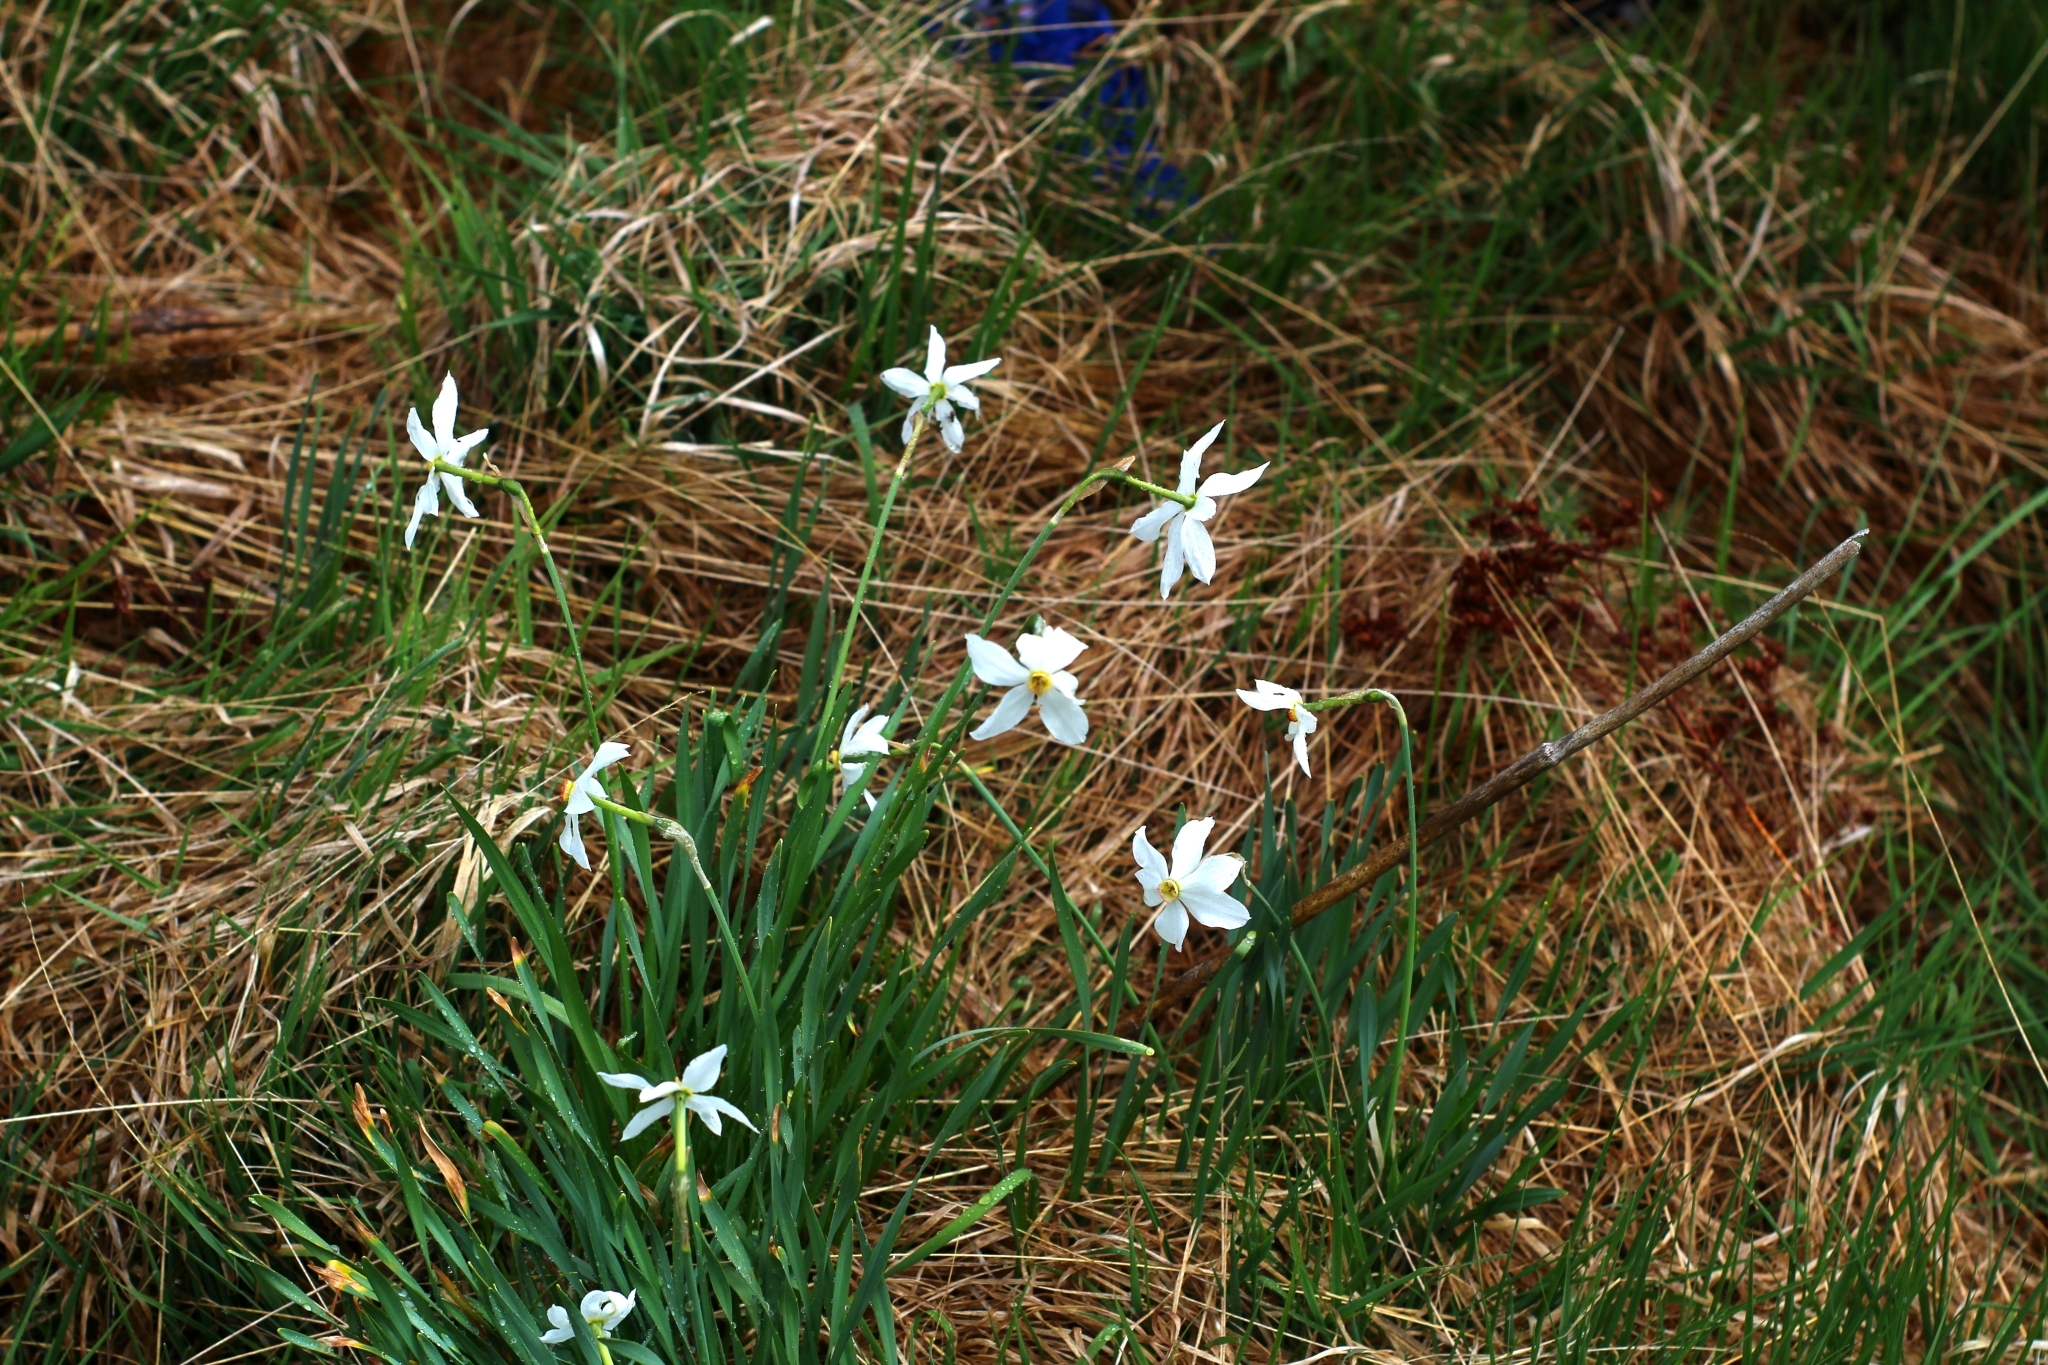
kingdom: Plantae
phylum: Tracheophyta
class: Liliopsida
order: Asparagales
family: Amaryllidaceae
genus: Narcissus
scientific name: Narcissus poeticus
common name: Pheasant's-eye daffodil
